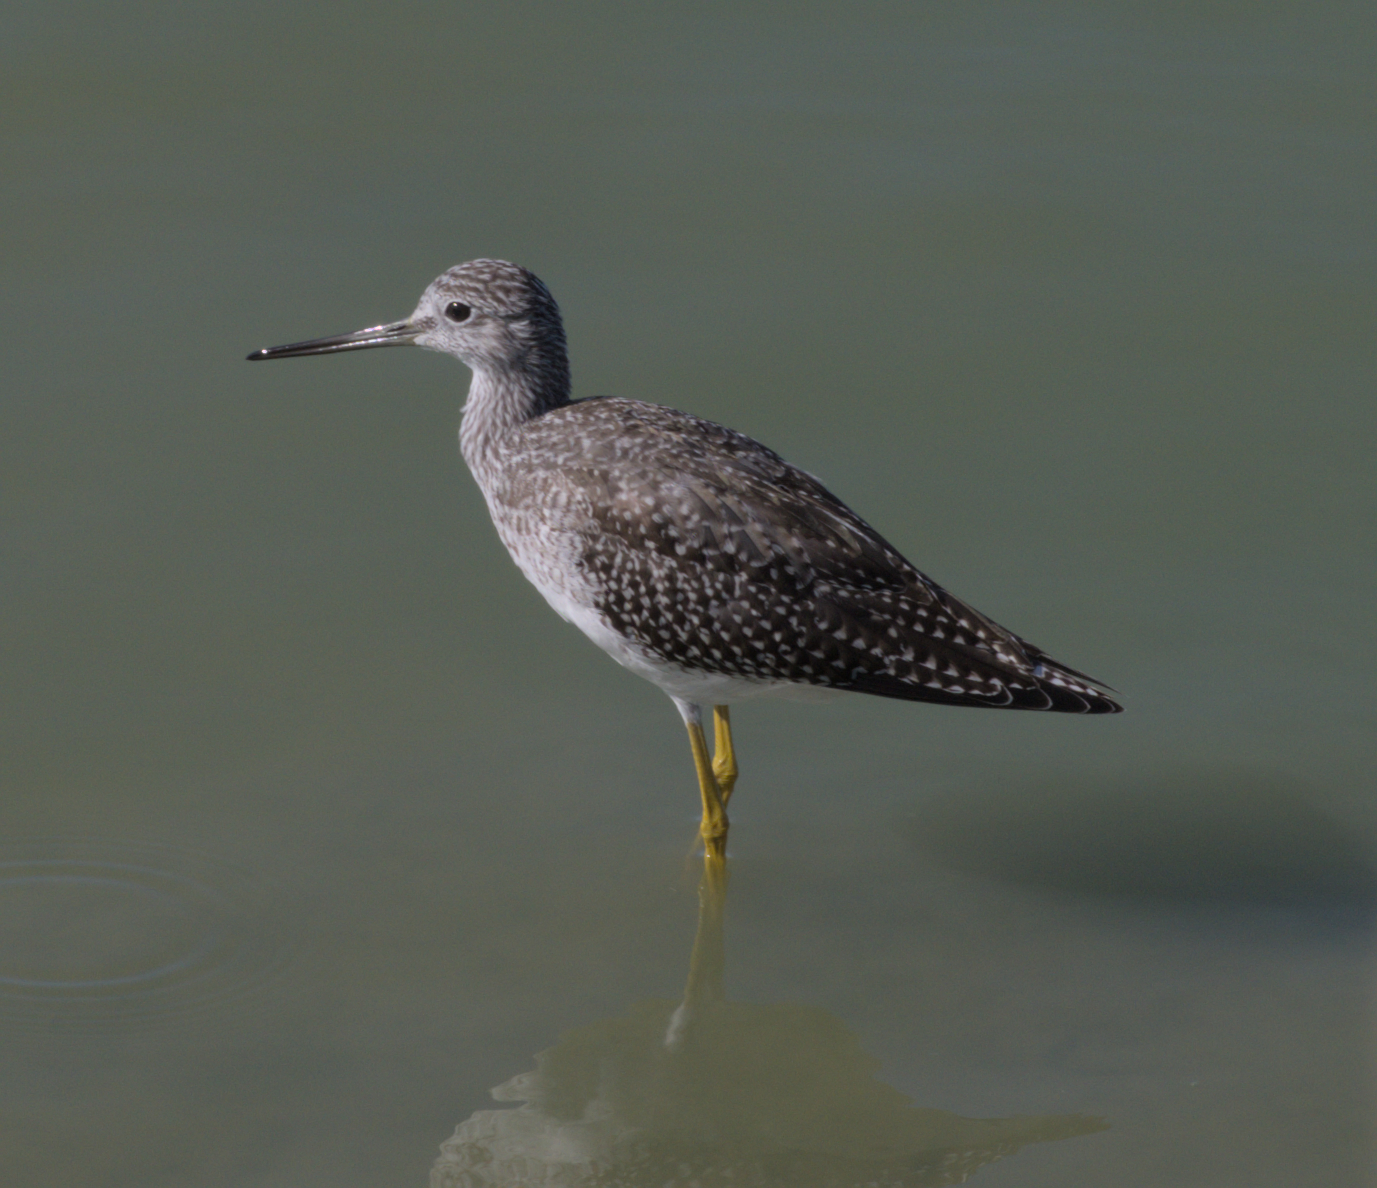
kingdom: Animalia
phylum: Chordata
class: Aves
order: Charadriiformes
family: Scolopacidae
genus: Tringa
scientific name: Tringa melanoleuca
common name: Greater yellowlegs
